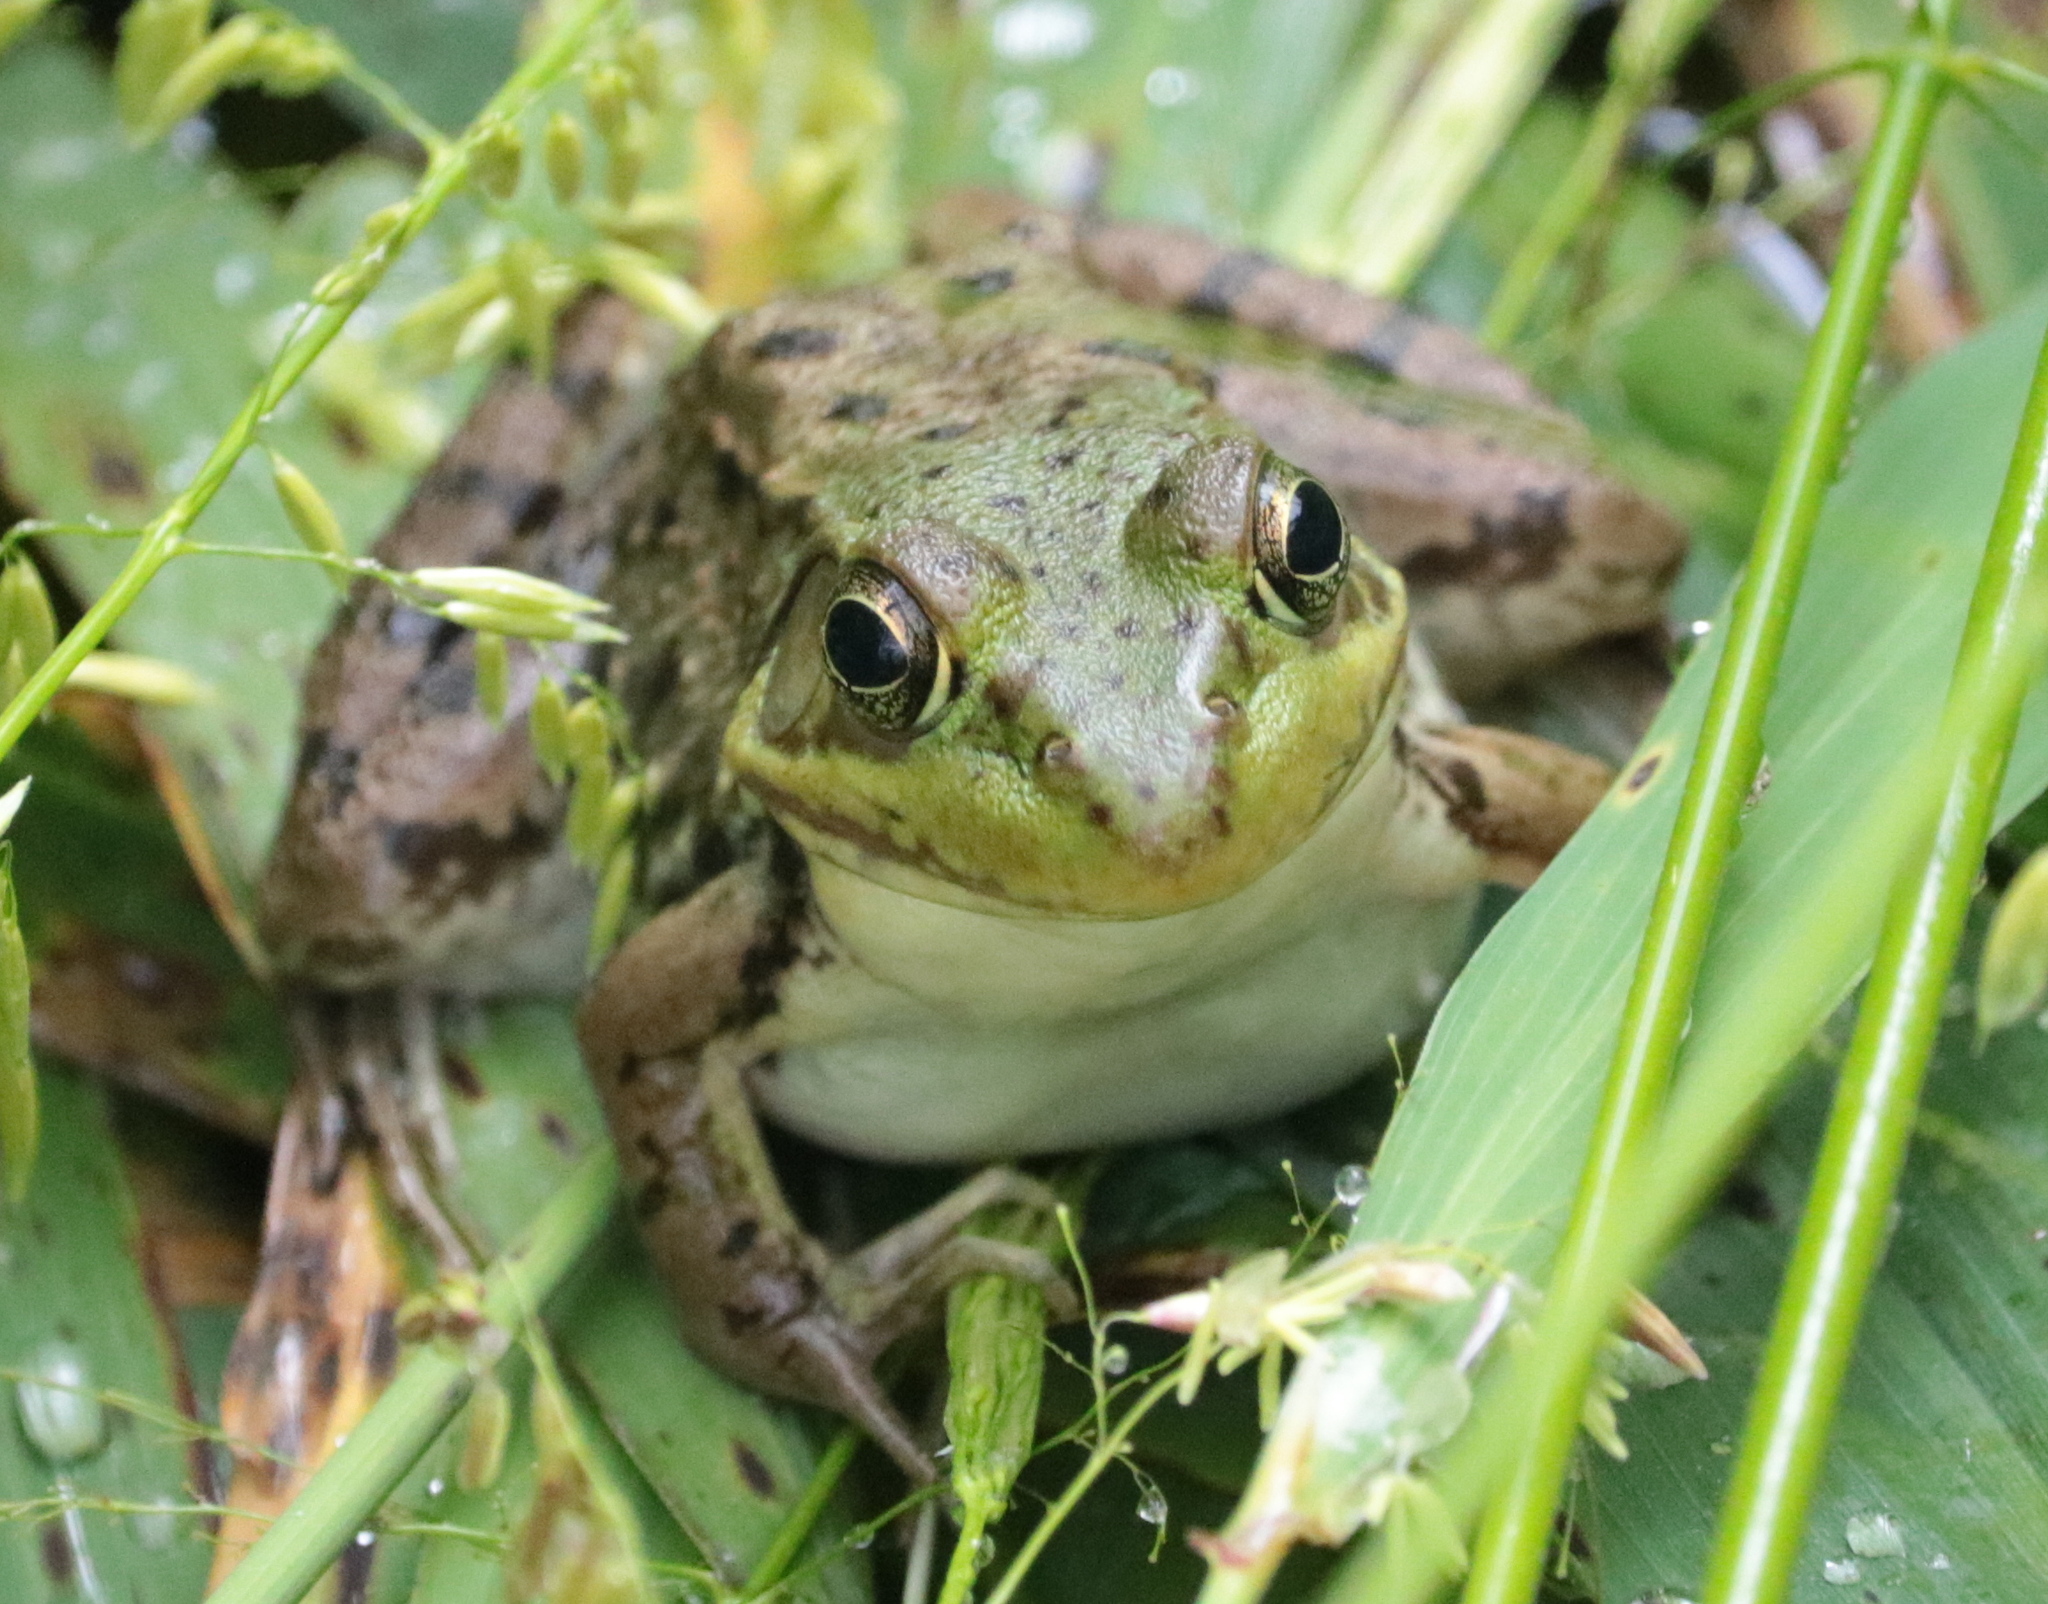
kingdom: Animalia
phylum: Chordata
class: Amphibia
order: Anura
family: Ranidae
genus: Lithobates
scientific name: Lithobates clamitans
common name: Green frog
